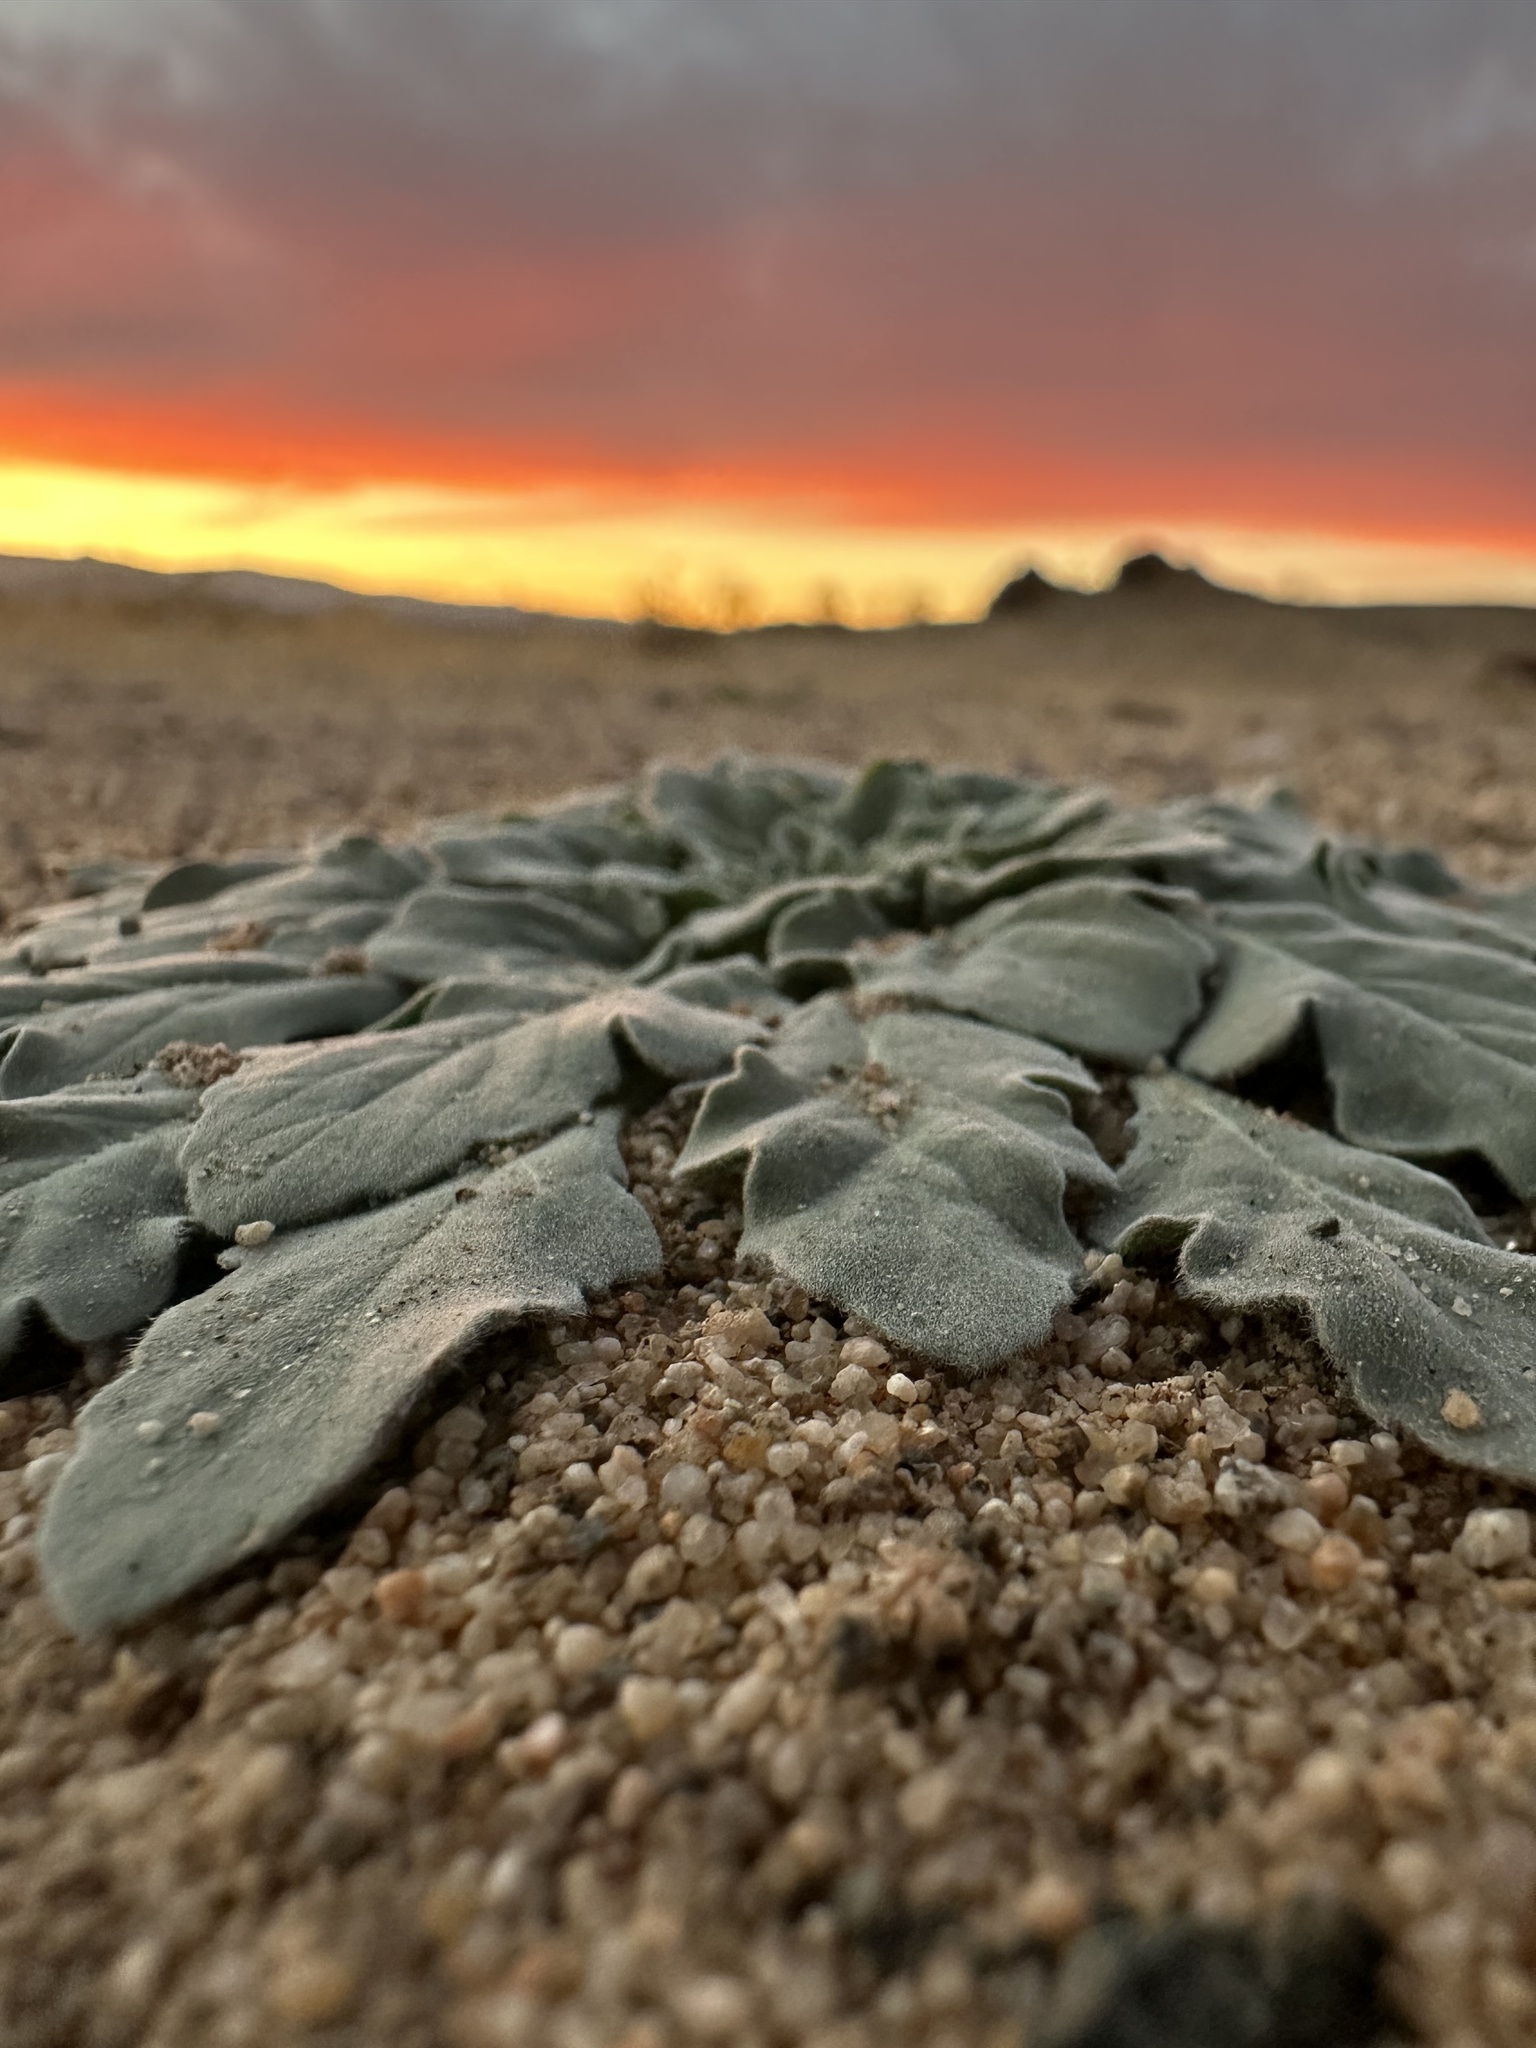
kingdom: Plantae
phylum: Tracheophyta
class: Magnoliopsida
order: Myrtales
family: Onagraceae
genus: Oenothera
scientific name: Oenothera primiveris
